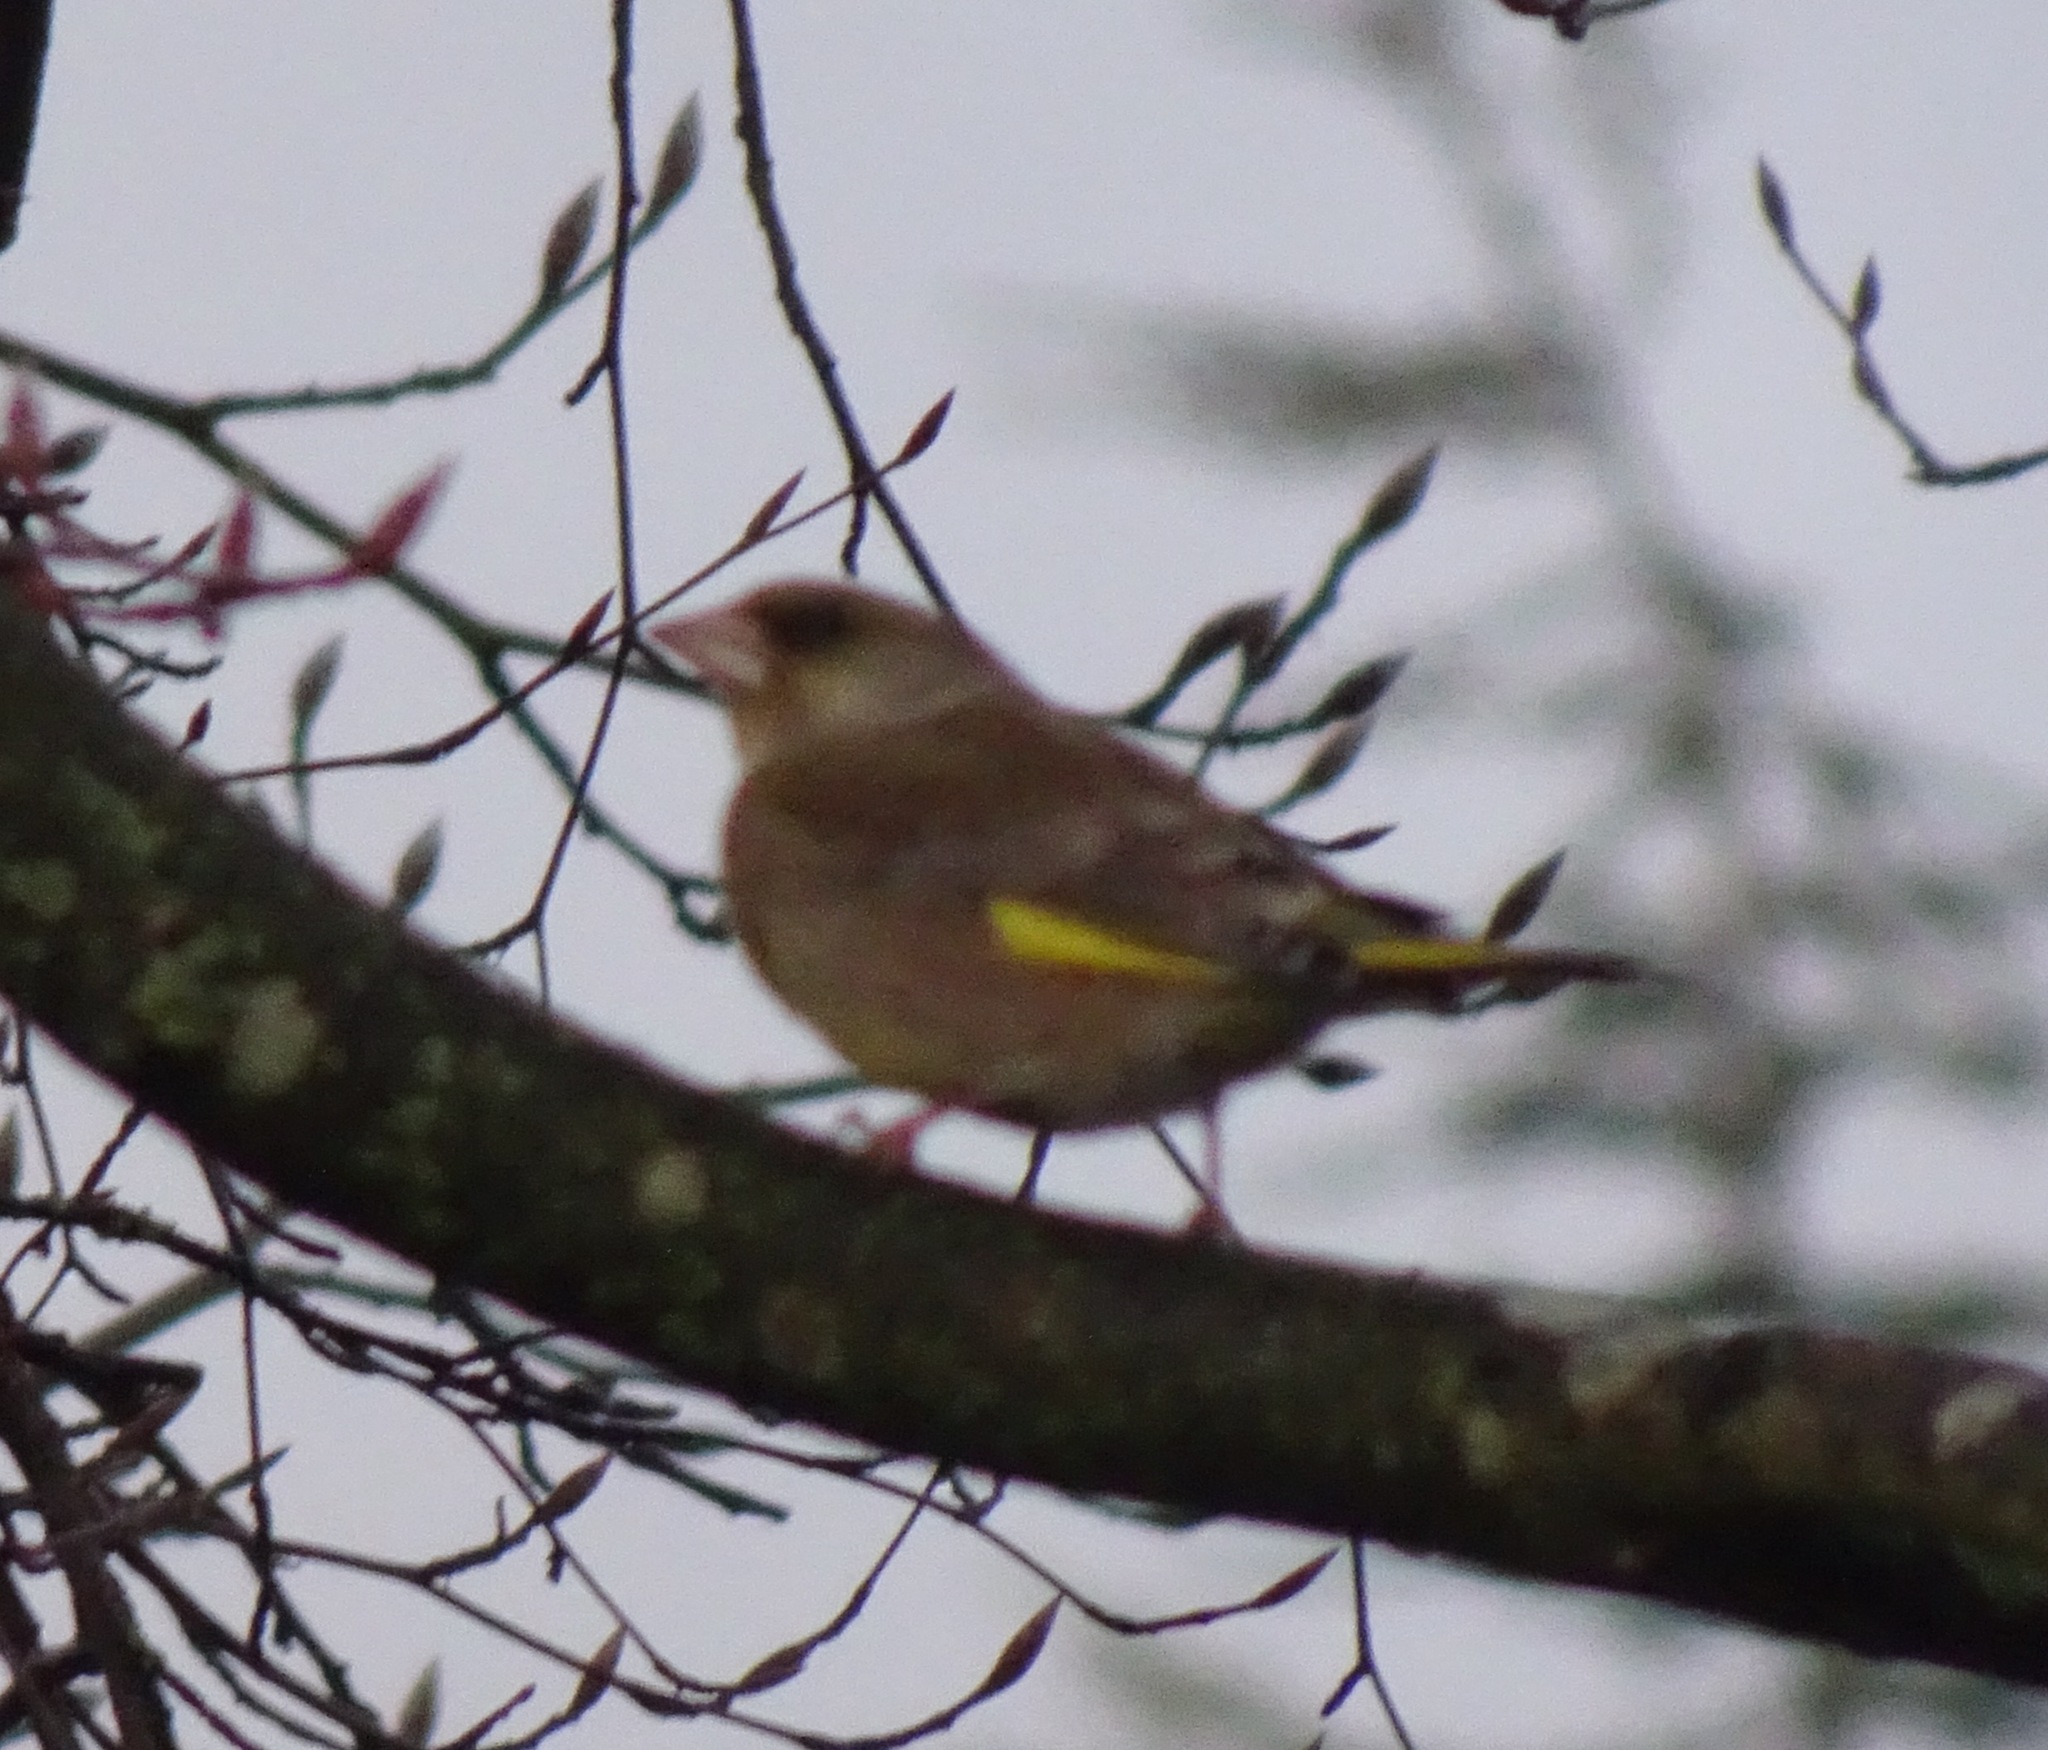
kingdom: Plantae
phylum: Tracheophyta
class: Liliopsida
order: Poales
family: Poaceae
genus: Chloris
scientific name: Chloris chloris
